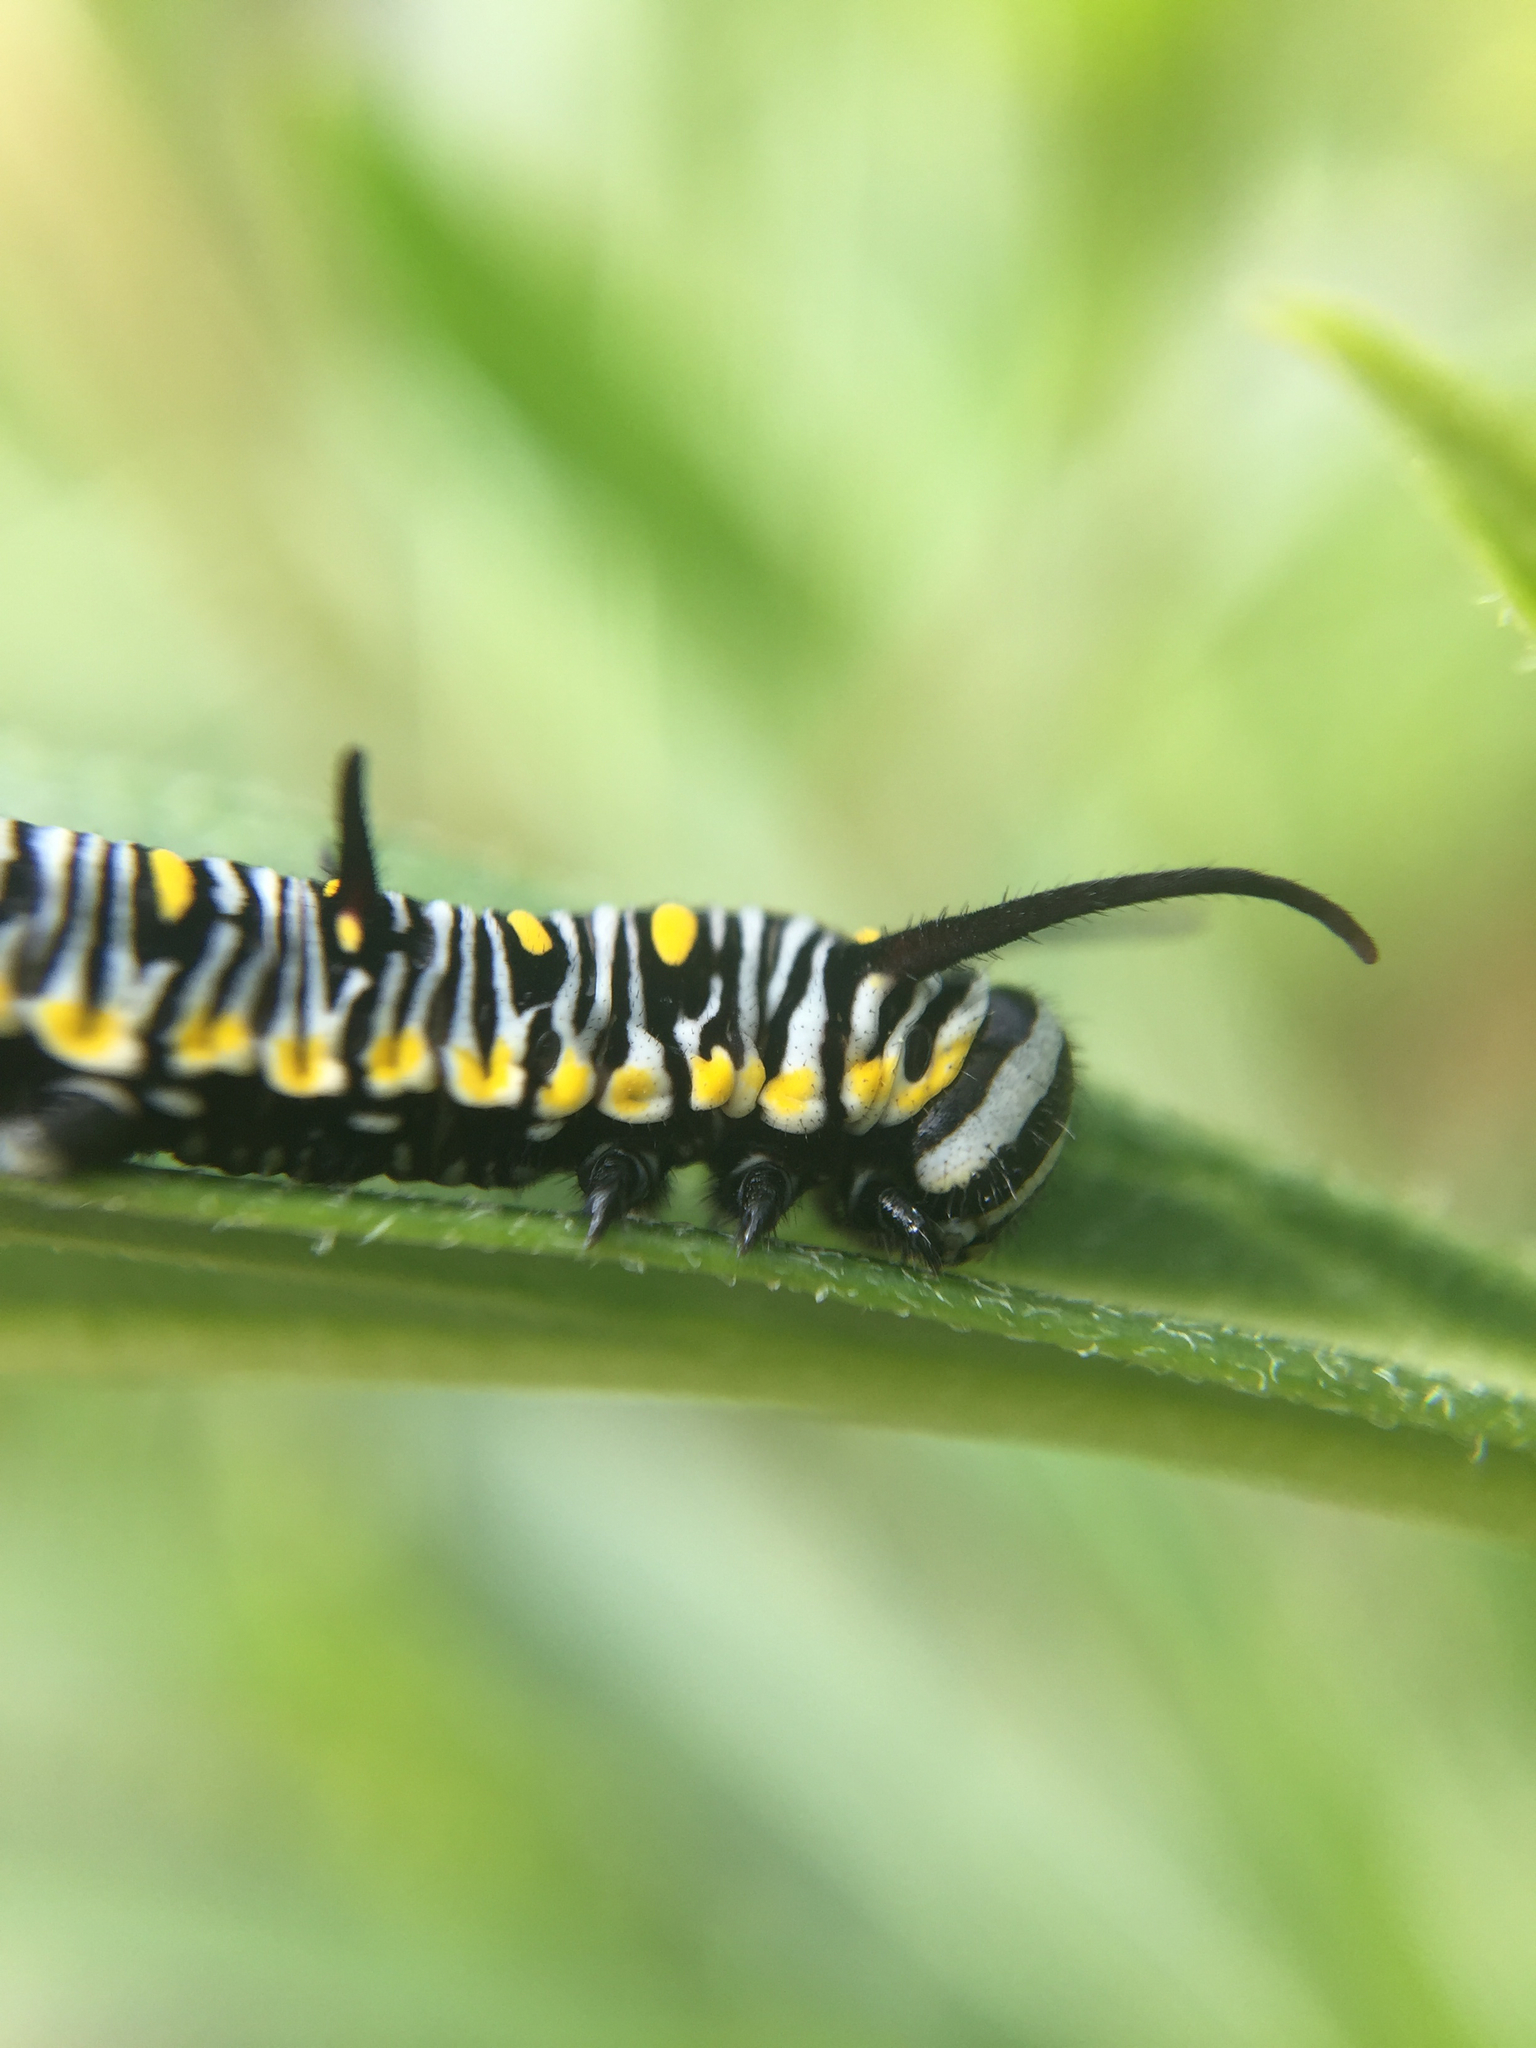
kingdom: Animalia
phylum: Arthropoda
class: Insecta
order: Lepidoptera
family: Nymphalidae
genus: Danaus
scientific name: Danaus chrysippus
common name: Plain tiger
